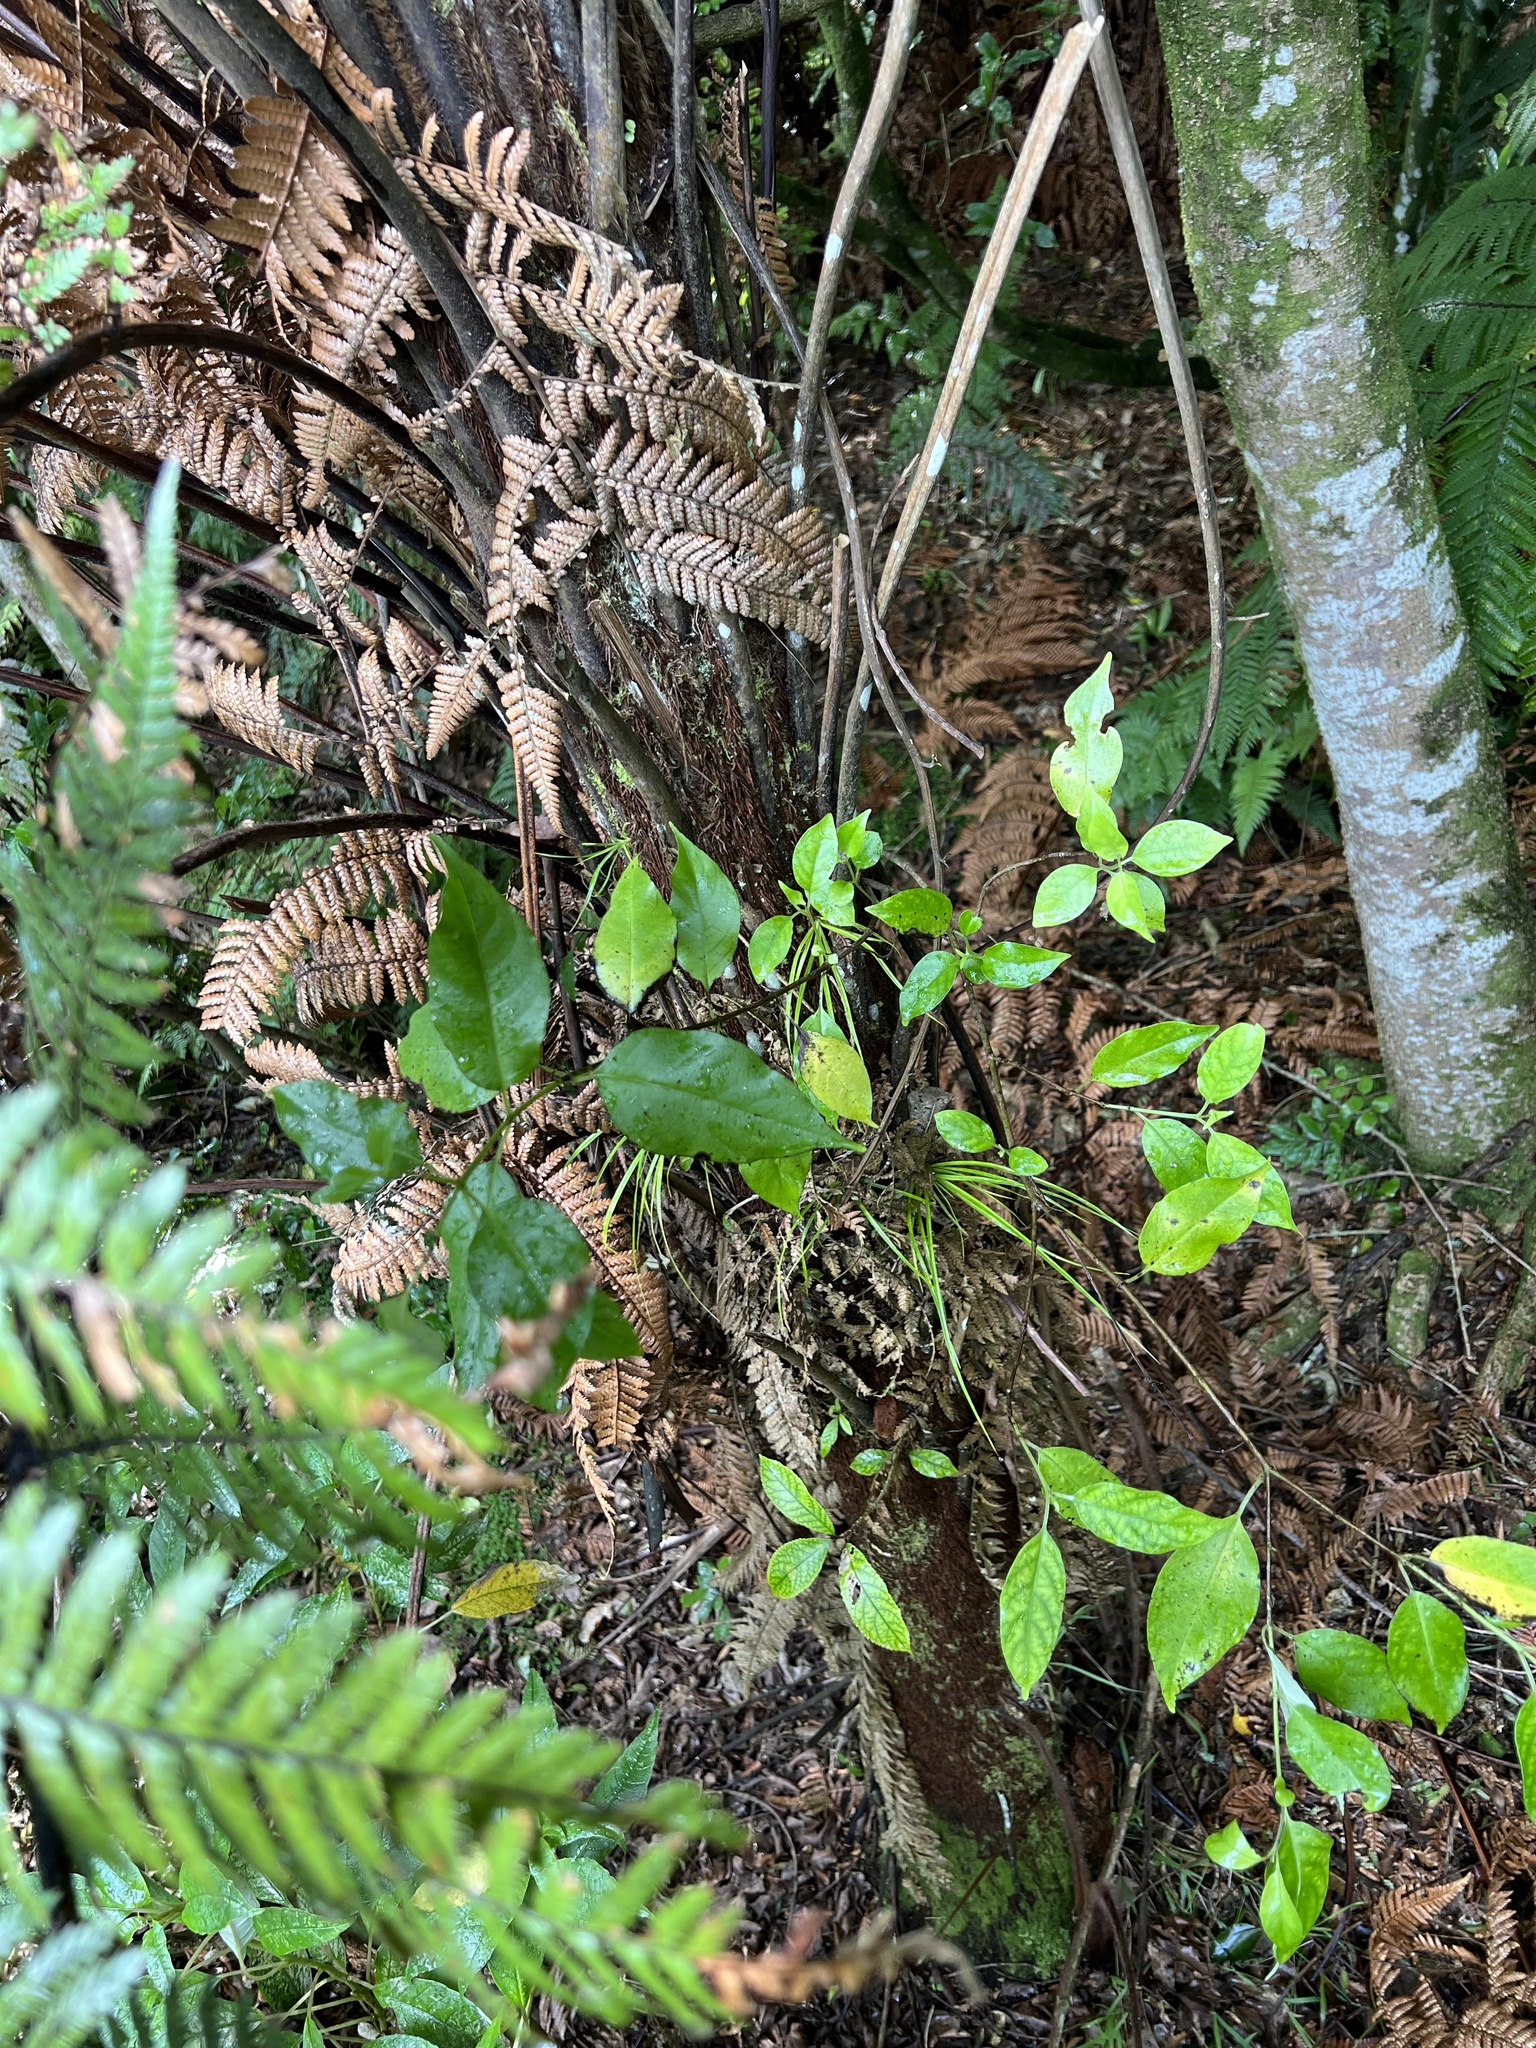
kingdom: Plantae
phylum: Tracheophyta
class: Magnoliopsida
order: Gentianales
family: Loganiaceae
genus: Geniostoma
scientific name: Geniostoma ligustrifolium
